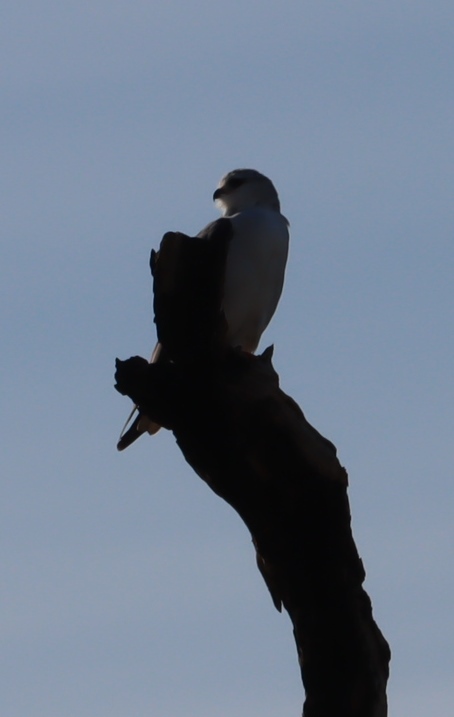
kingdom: Animalia
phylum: Chordata
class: Aves
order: Accipitriformes
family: Accipitridae
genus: Elanus
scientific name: Elanus caeruleus
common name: Black-winged kite
